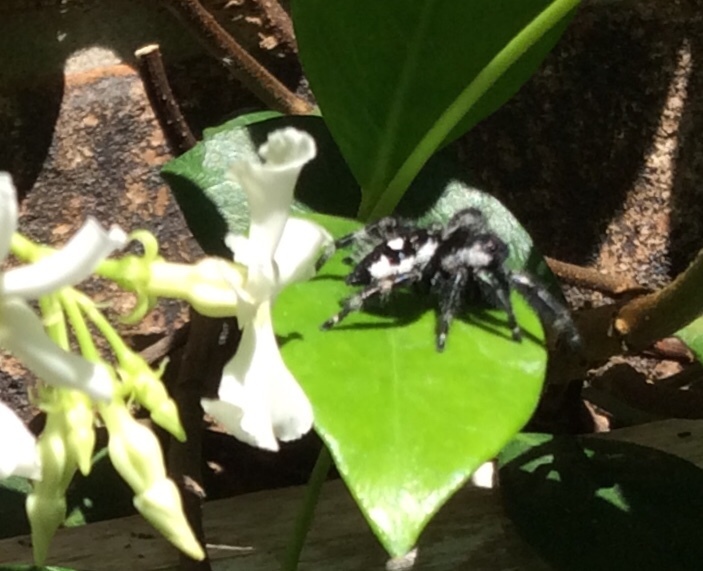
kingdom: Animalia
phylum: Arthropoda
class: Arachnida
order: Araneae
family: Salticidae
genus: Phidippus
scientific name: Phidippus audax
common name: Bold jumper
